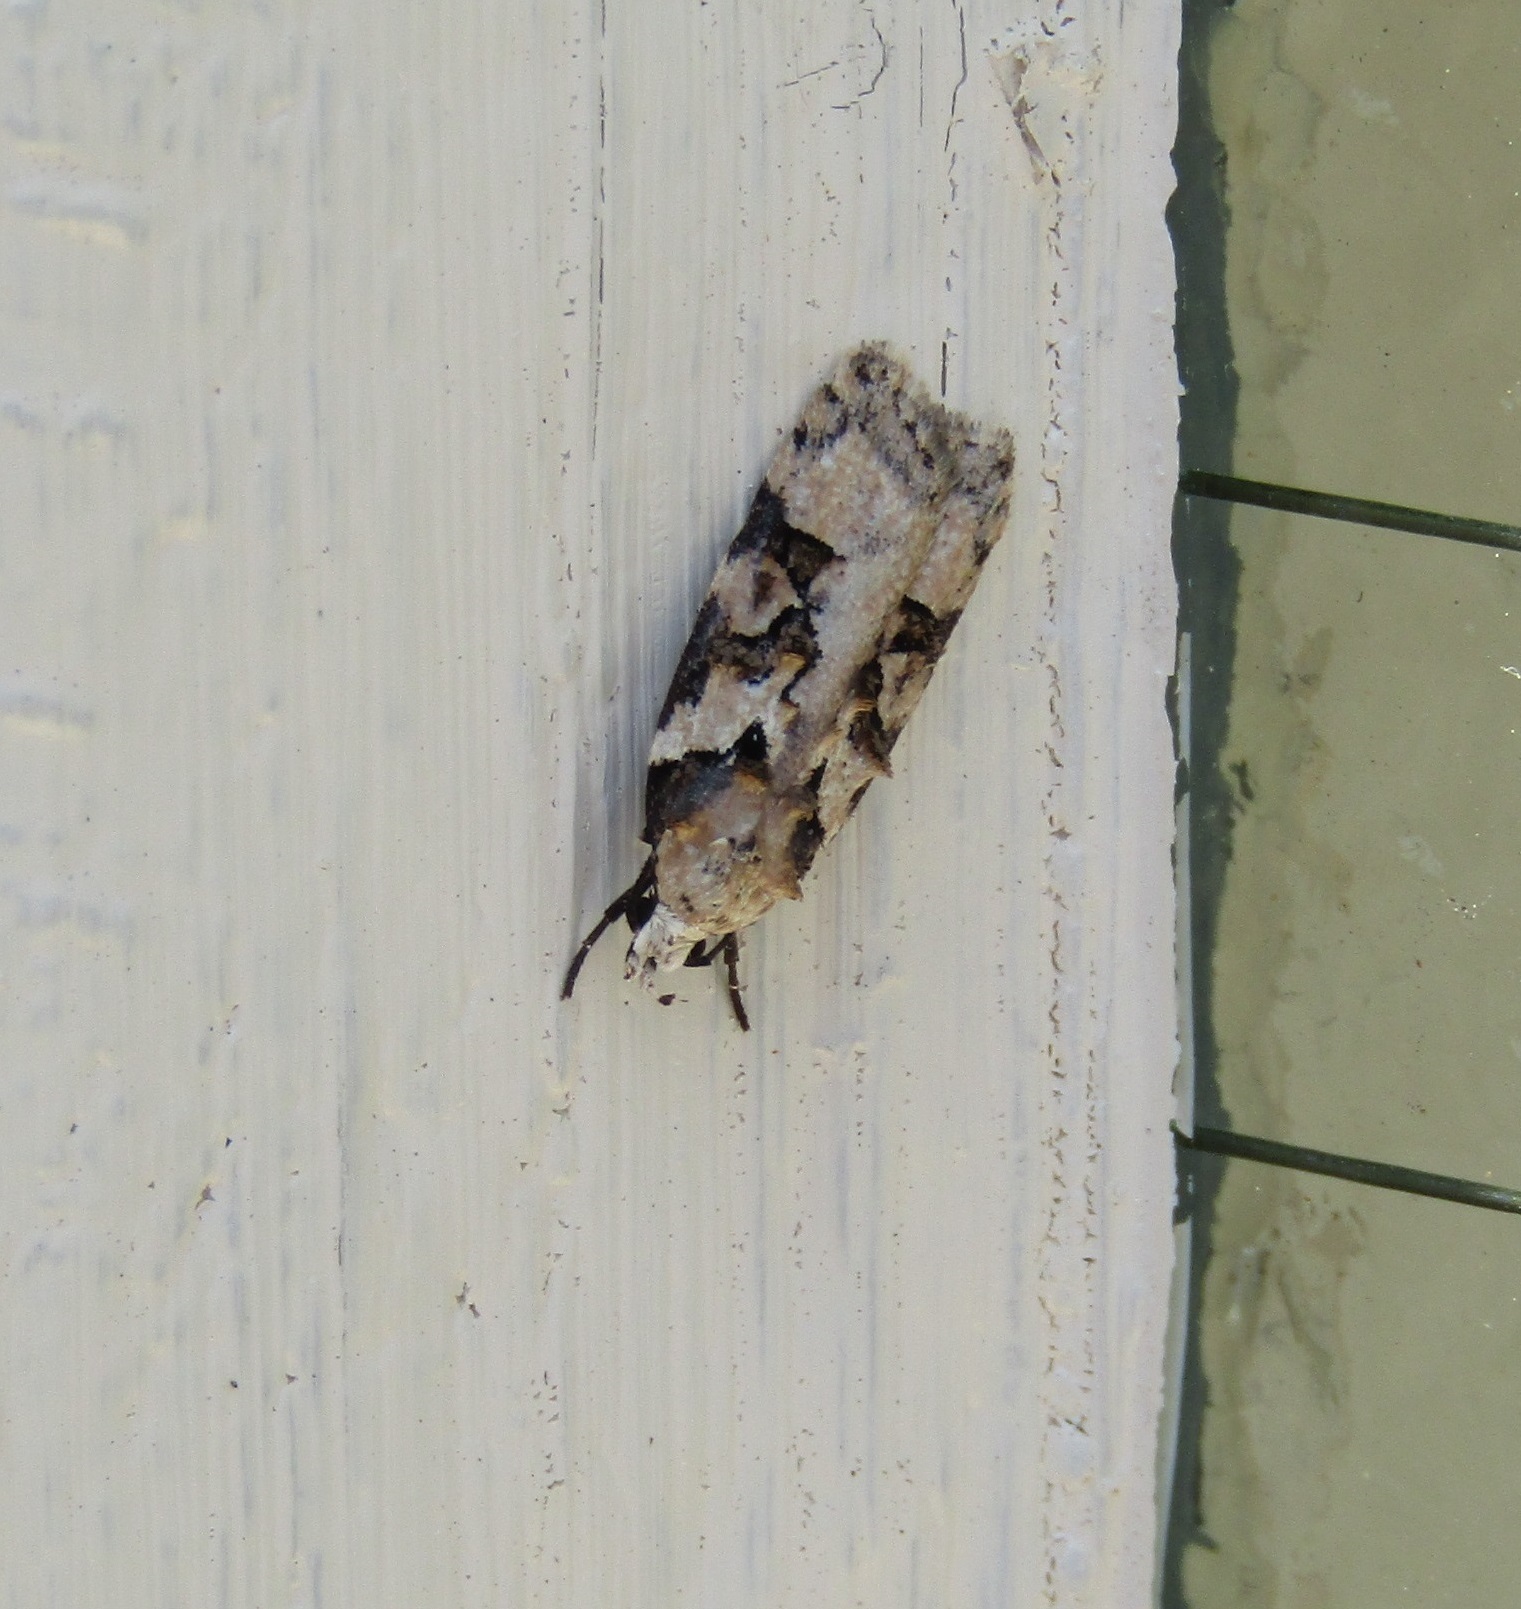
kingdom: Animalia
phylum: Arthropoda
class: Insecta
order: Lepidoptera
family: Oecophoridae
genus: Izatha
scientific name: Izatha epiphanes
